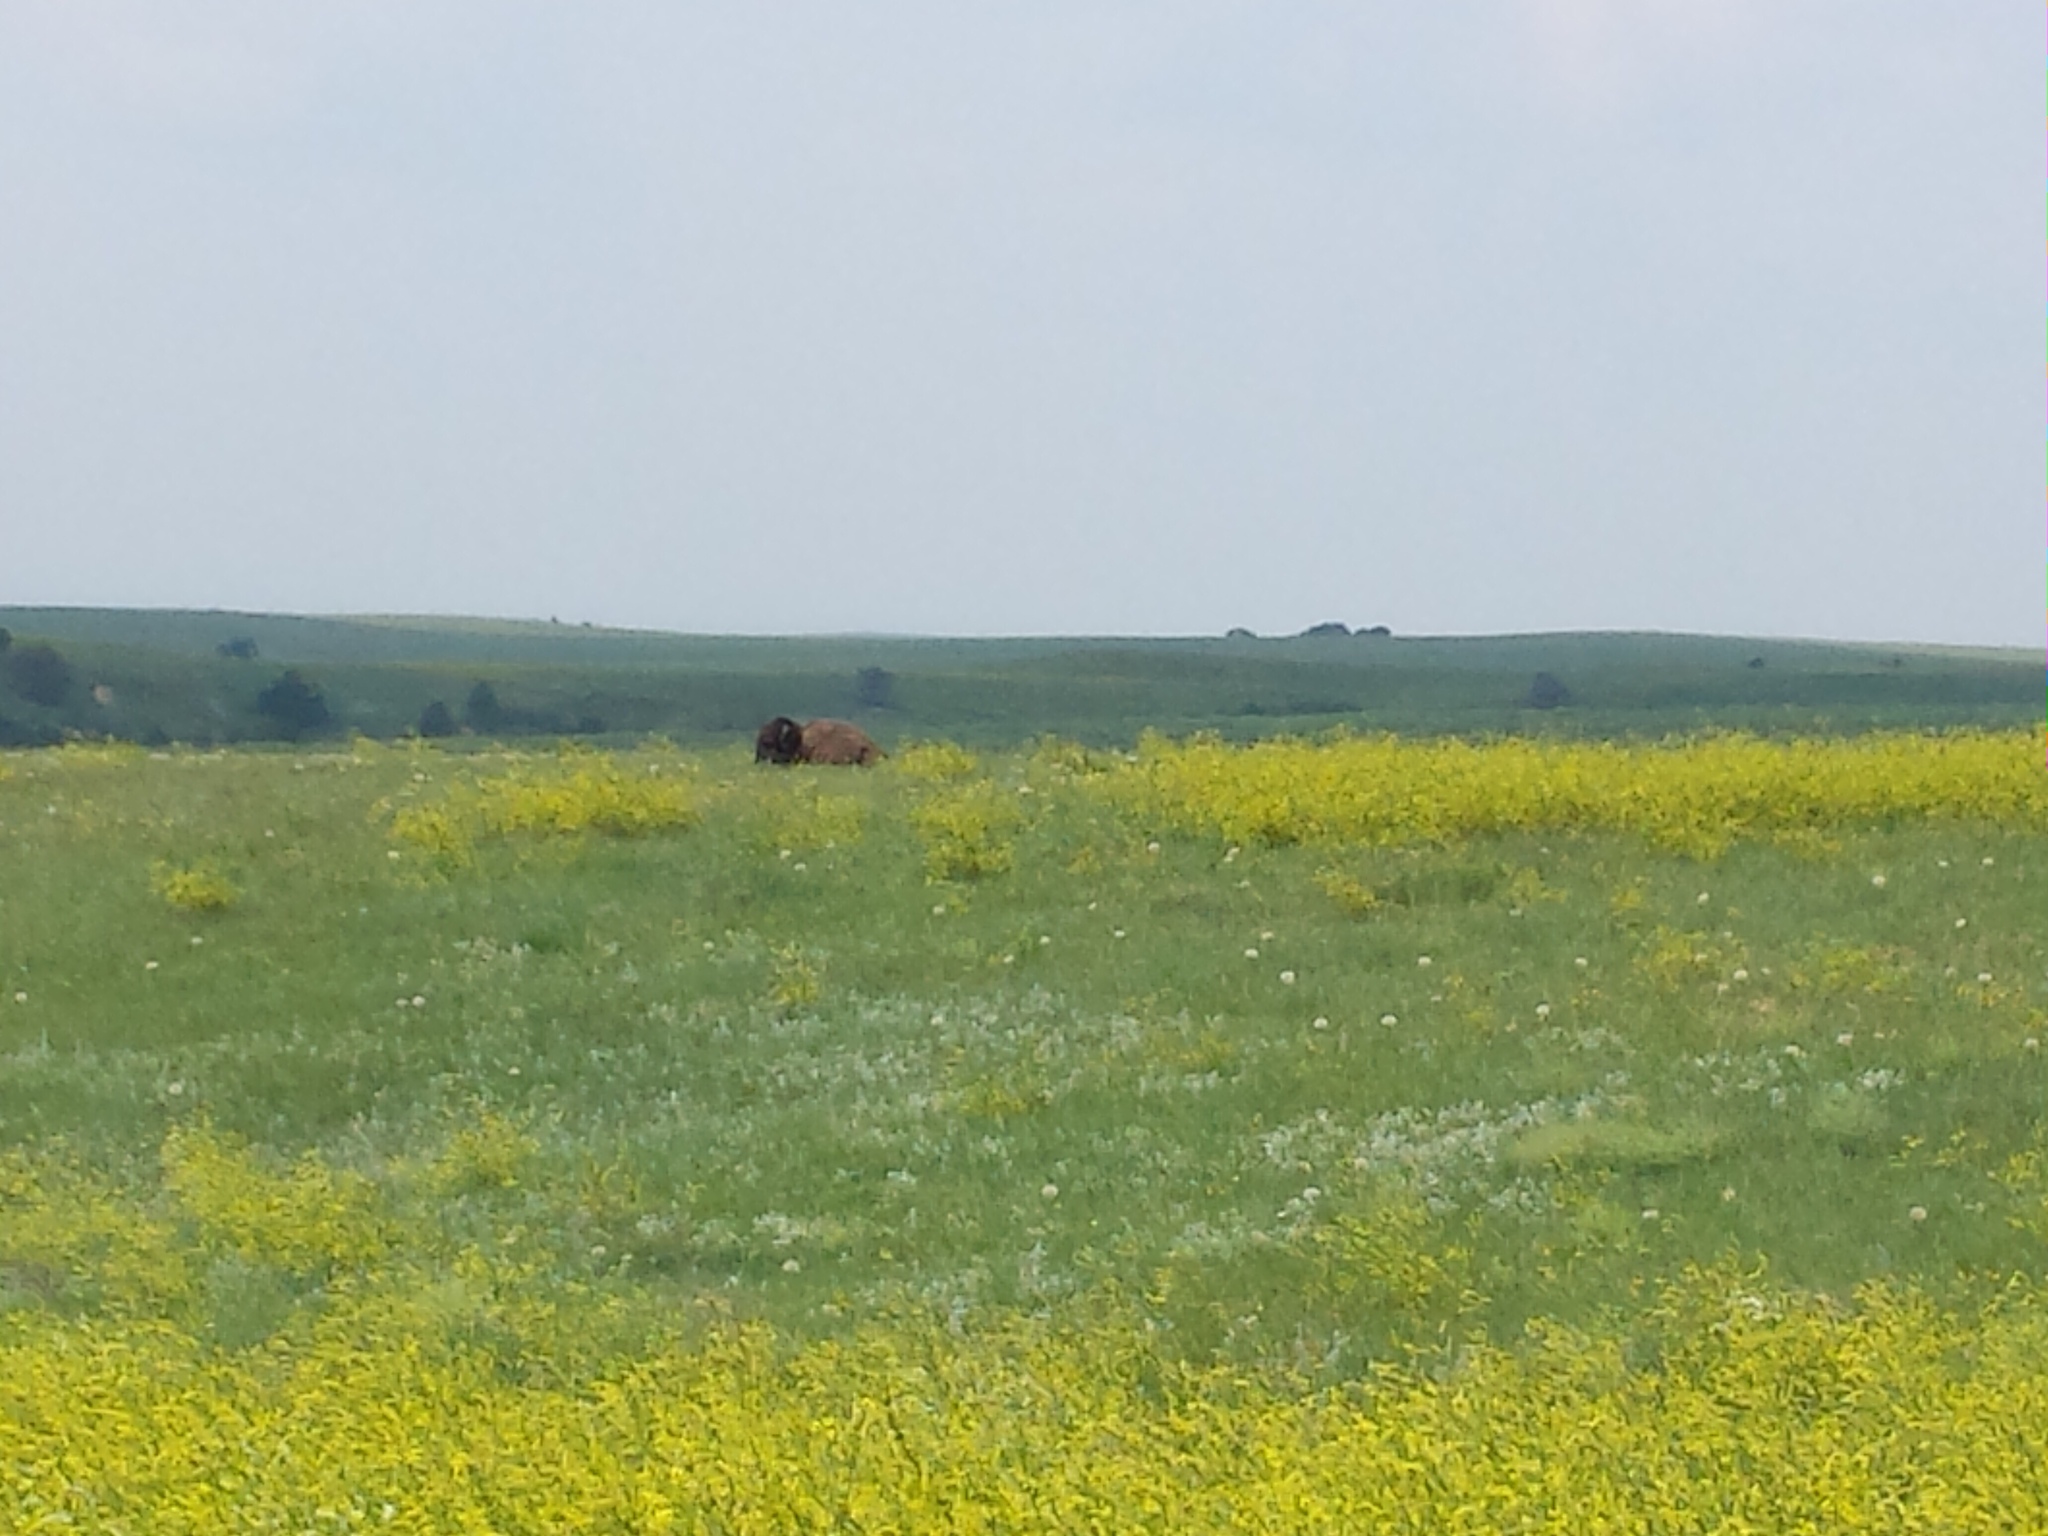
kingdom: Animalia
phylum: Chordata
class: Mammalia
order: Artiodactyla
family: Bovidae
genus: Bison
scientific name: Bison bison
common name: American bison
